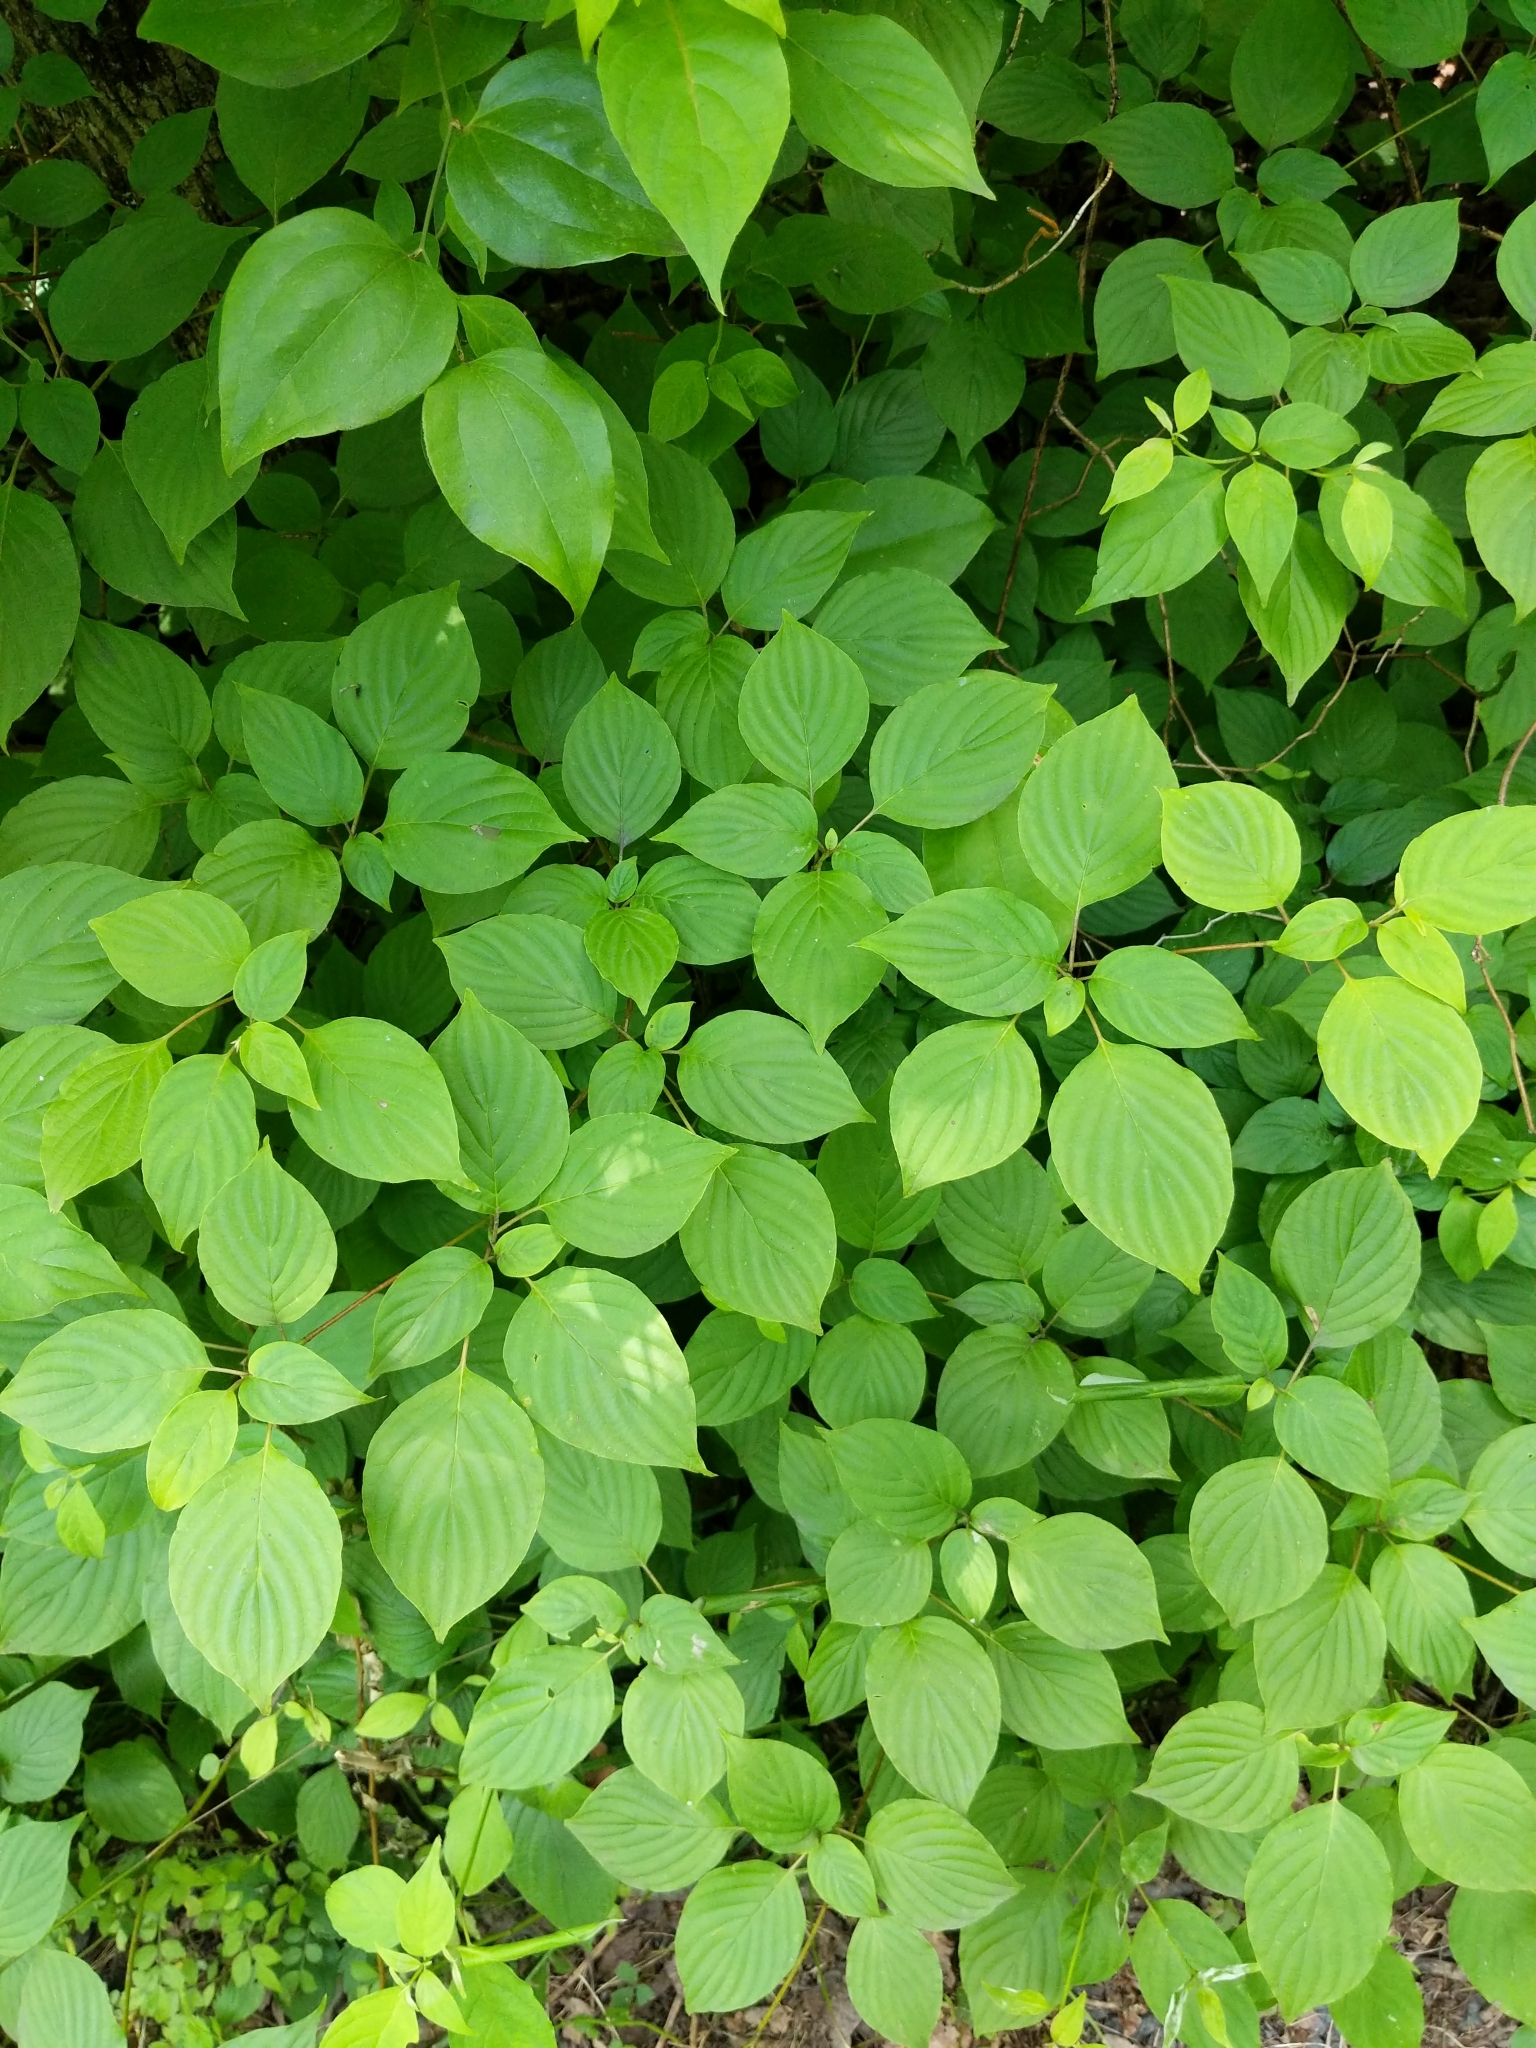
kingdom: Plantae
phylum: Tracheophyta
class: Magnoliopsida
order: Cornales
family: Cornaceae
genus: Cornus
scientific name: Cornus alternifolia
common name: Pagoda dogwood
